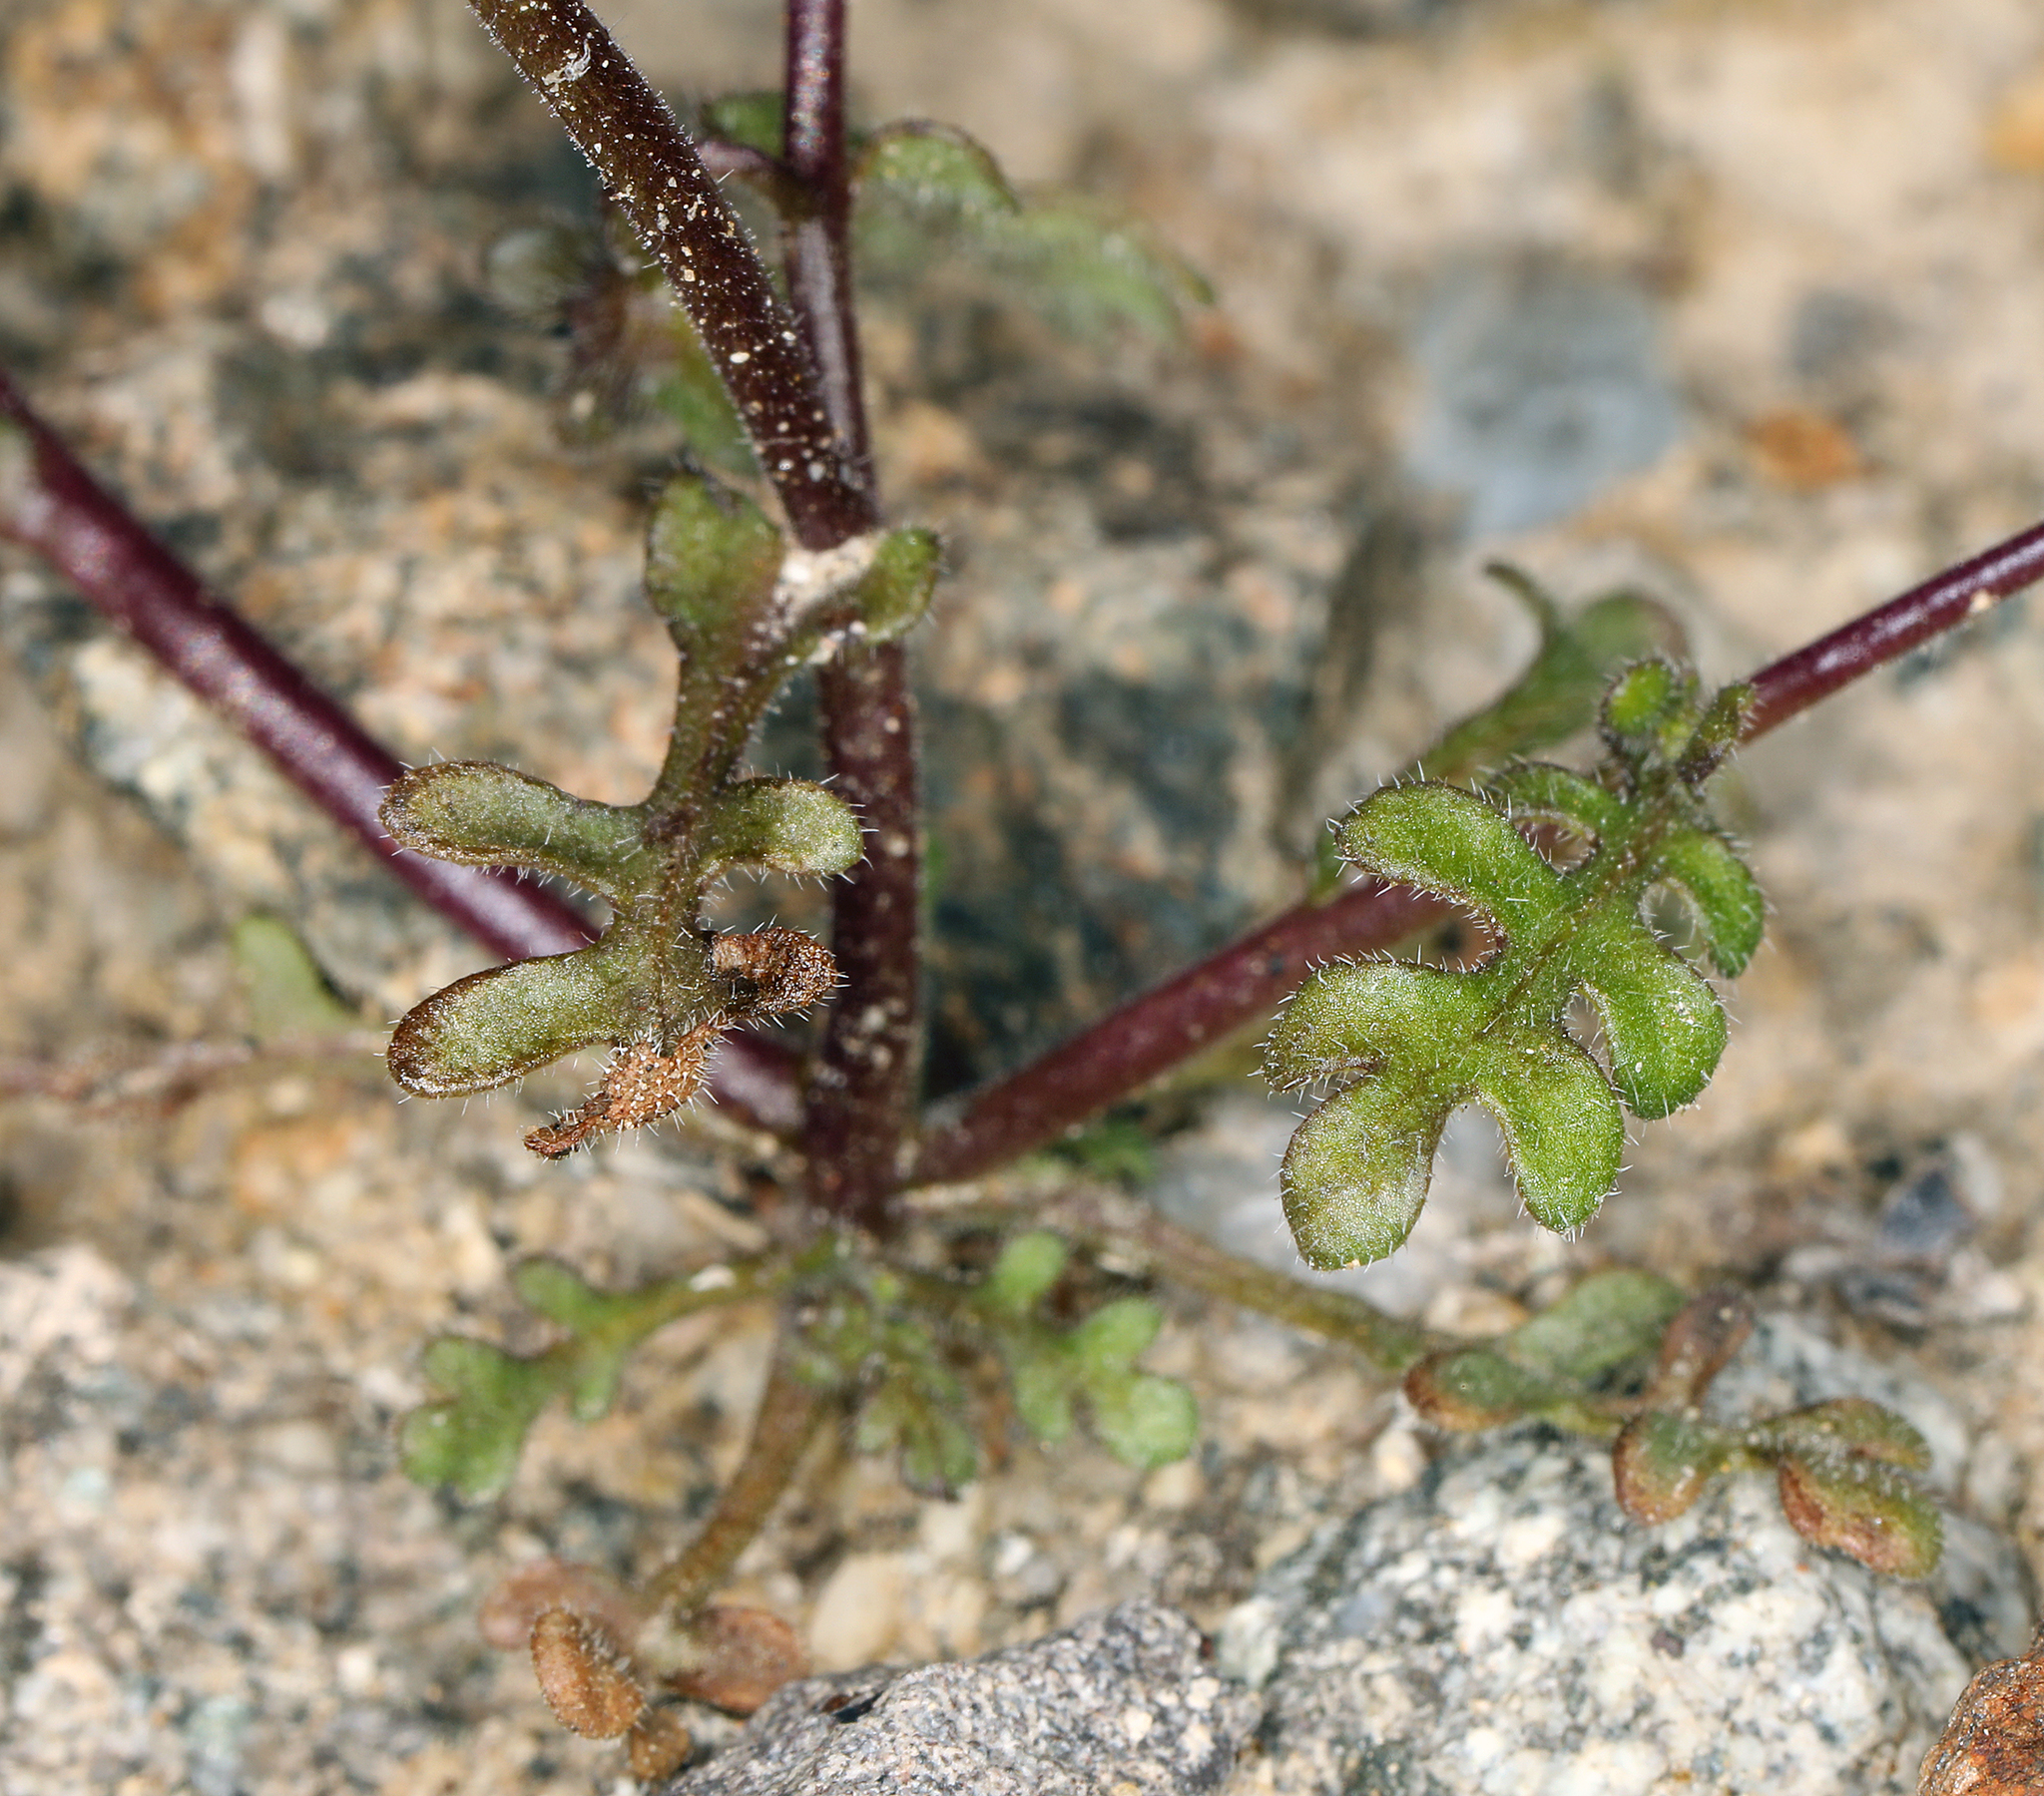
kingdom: Plantae
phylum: Tracheophyta
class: Magnoliopsida
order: Boraginales
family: Hydrophyllaceae
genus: Eucrypta
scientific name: Eucrypta micrantha
